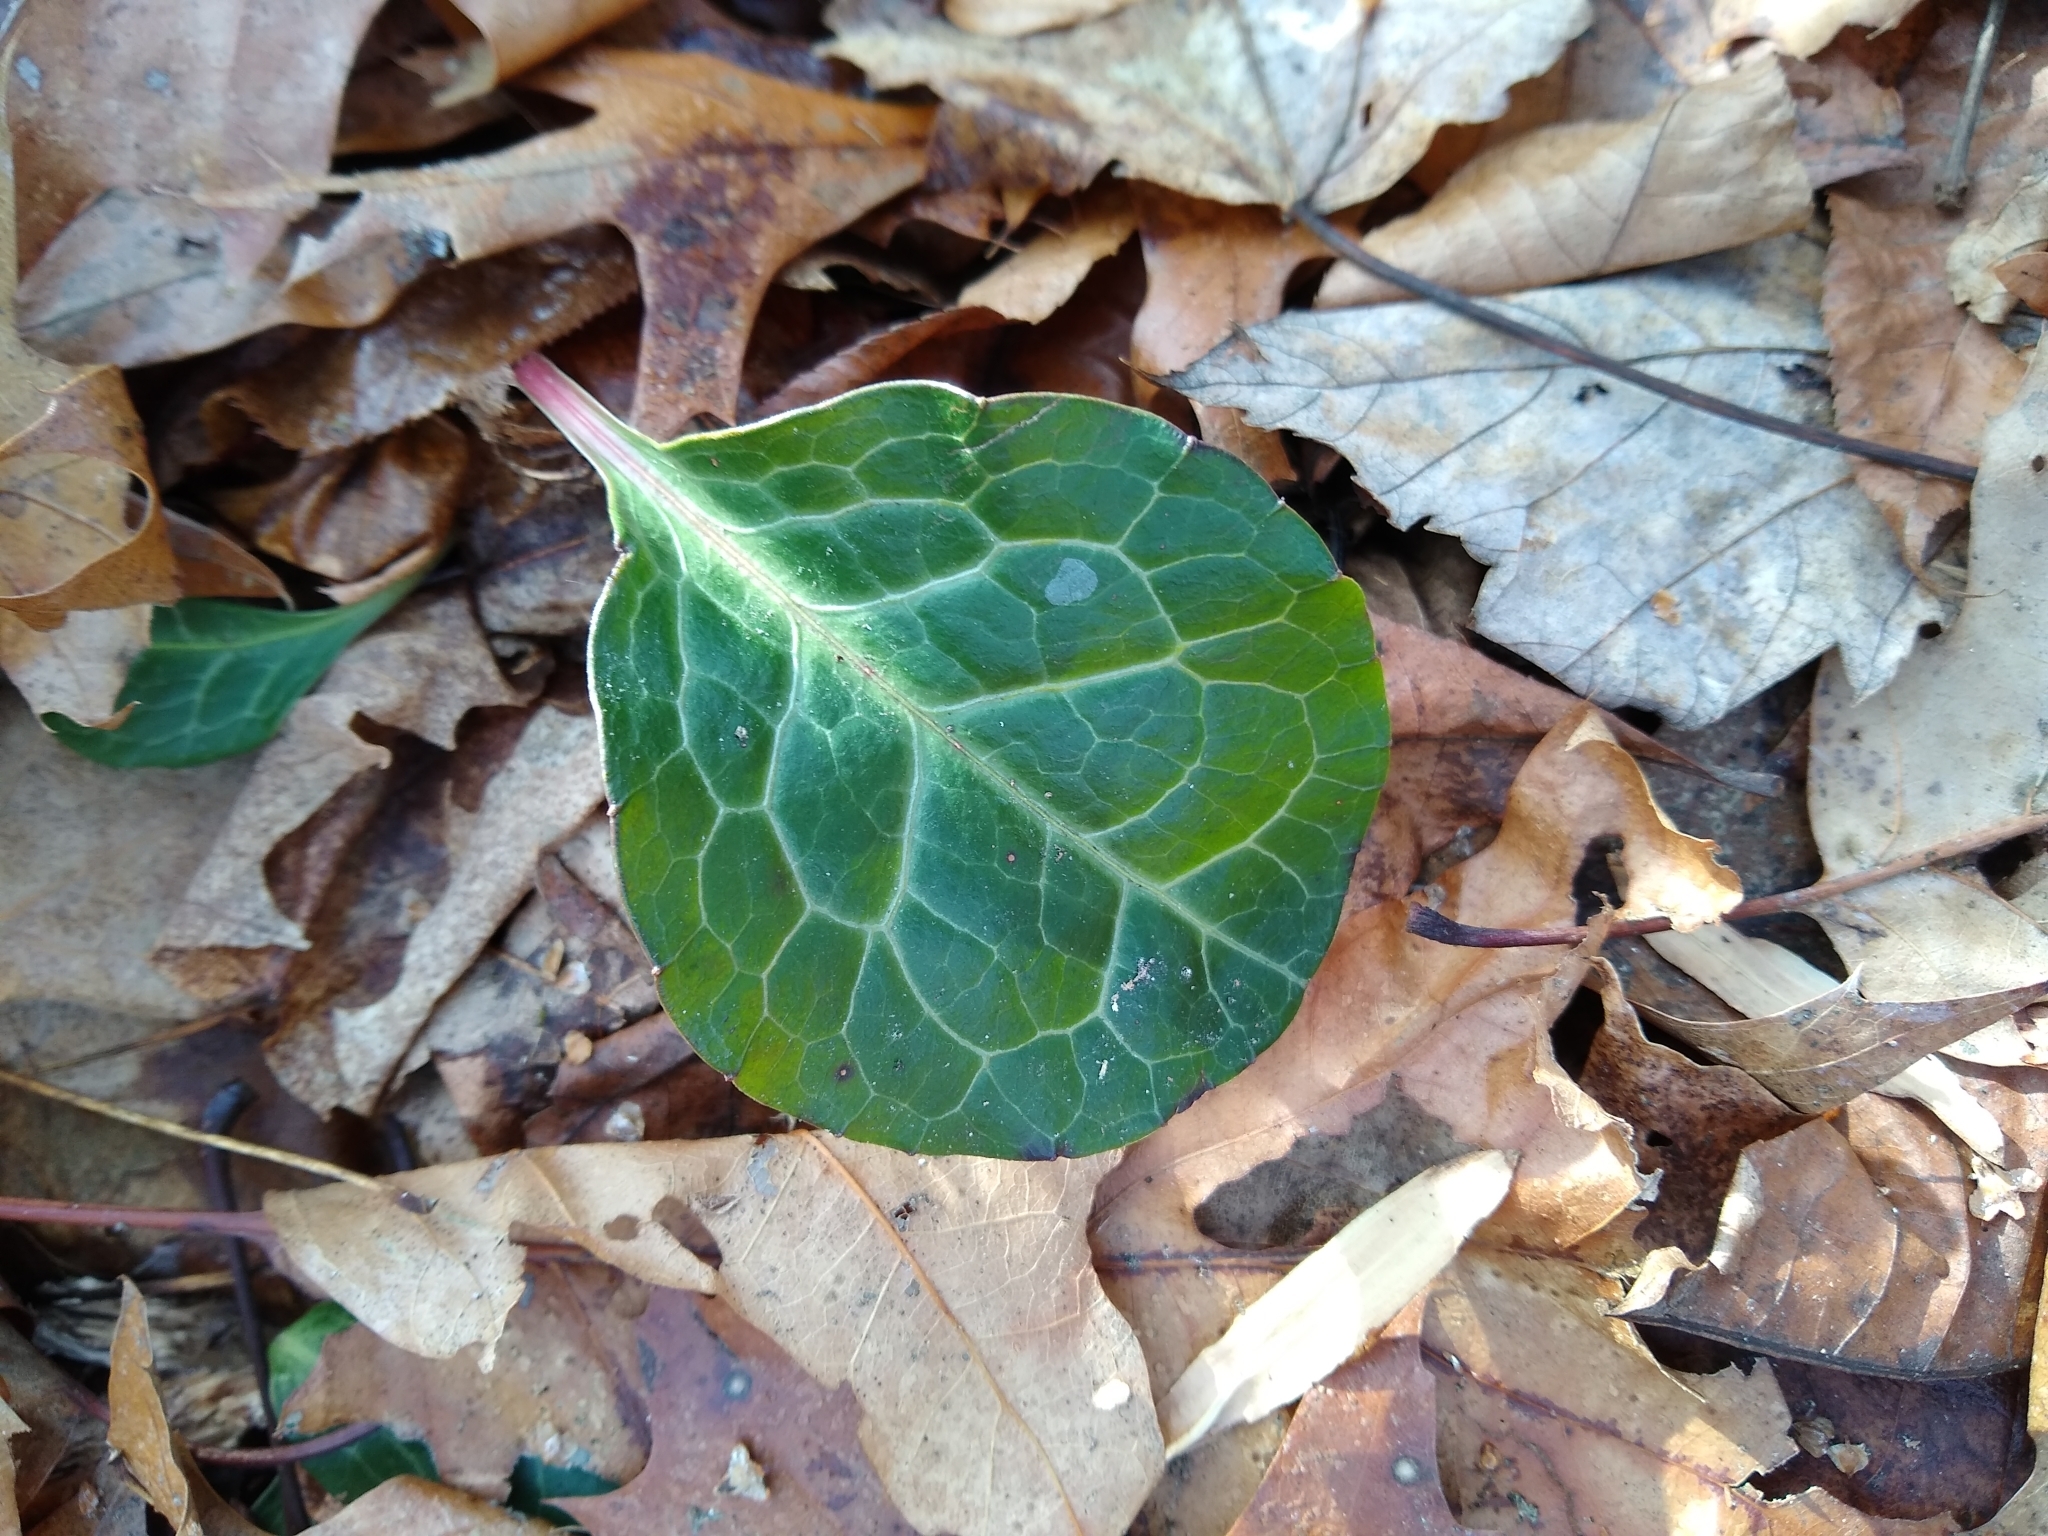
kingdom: Plantae
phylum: Tracheophyta
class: Magnoliopsida
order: Ericales
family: Ericaceae
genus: Pyrola
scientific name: Pyrola americana
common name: American wintergreen
